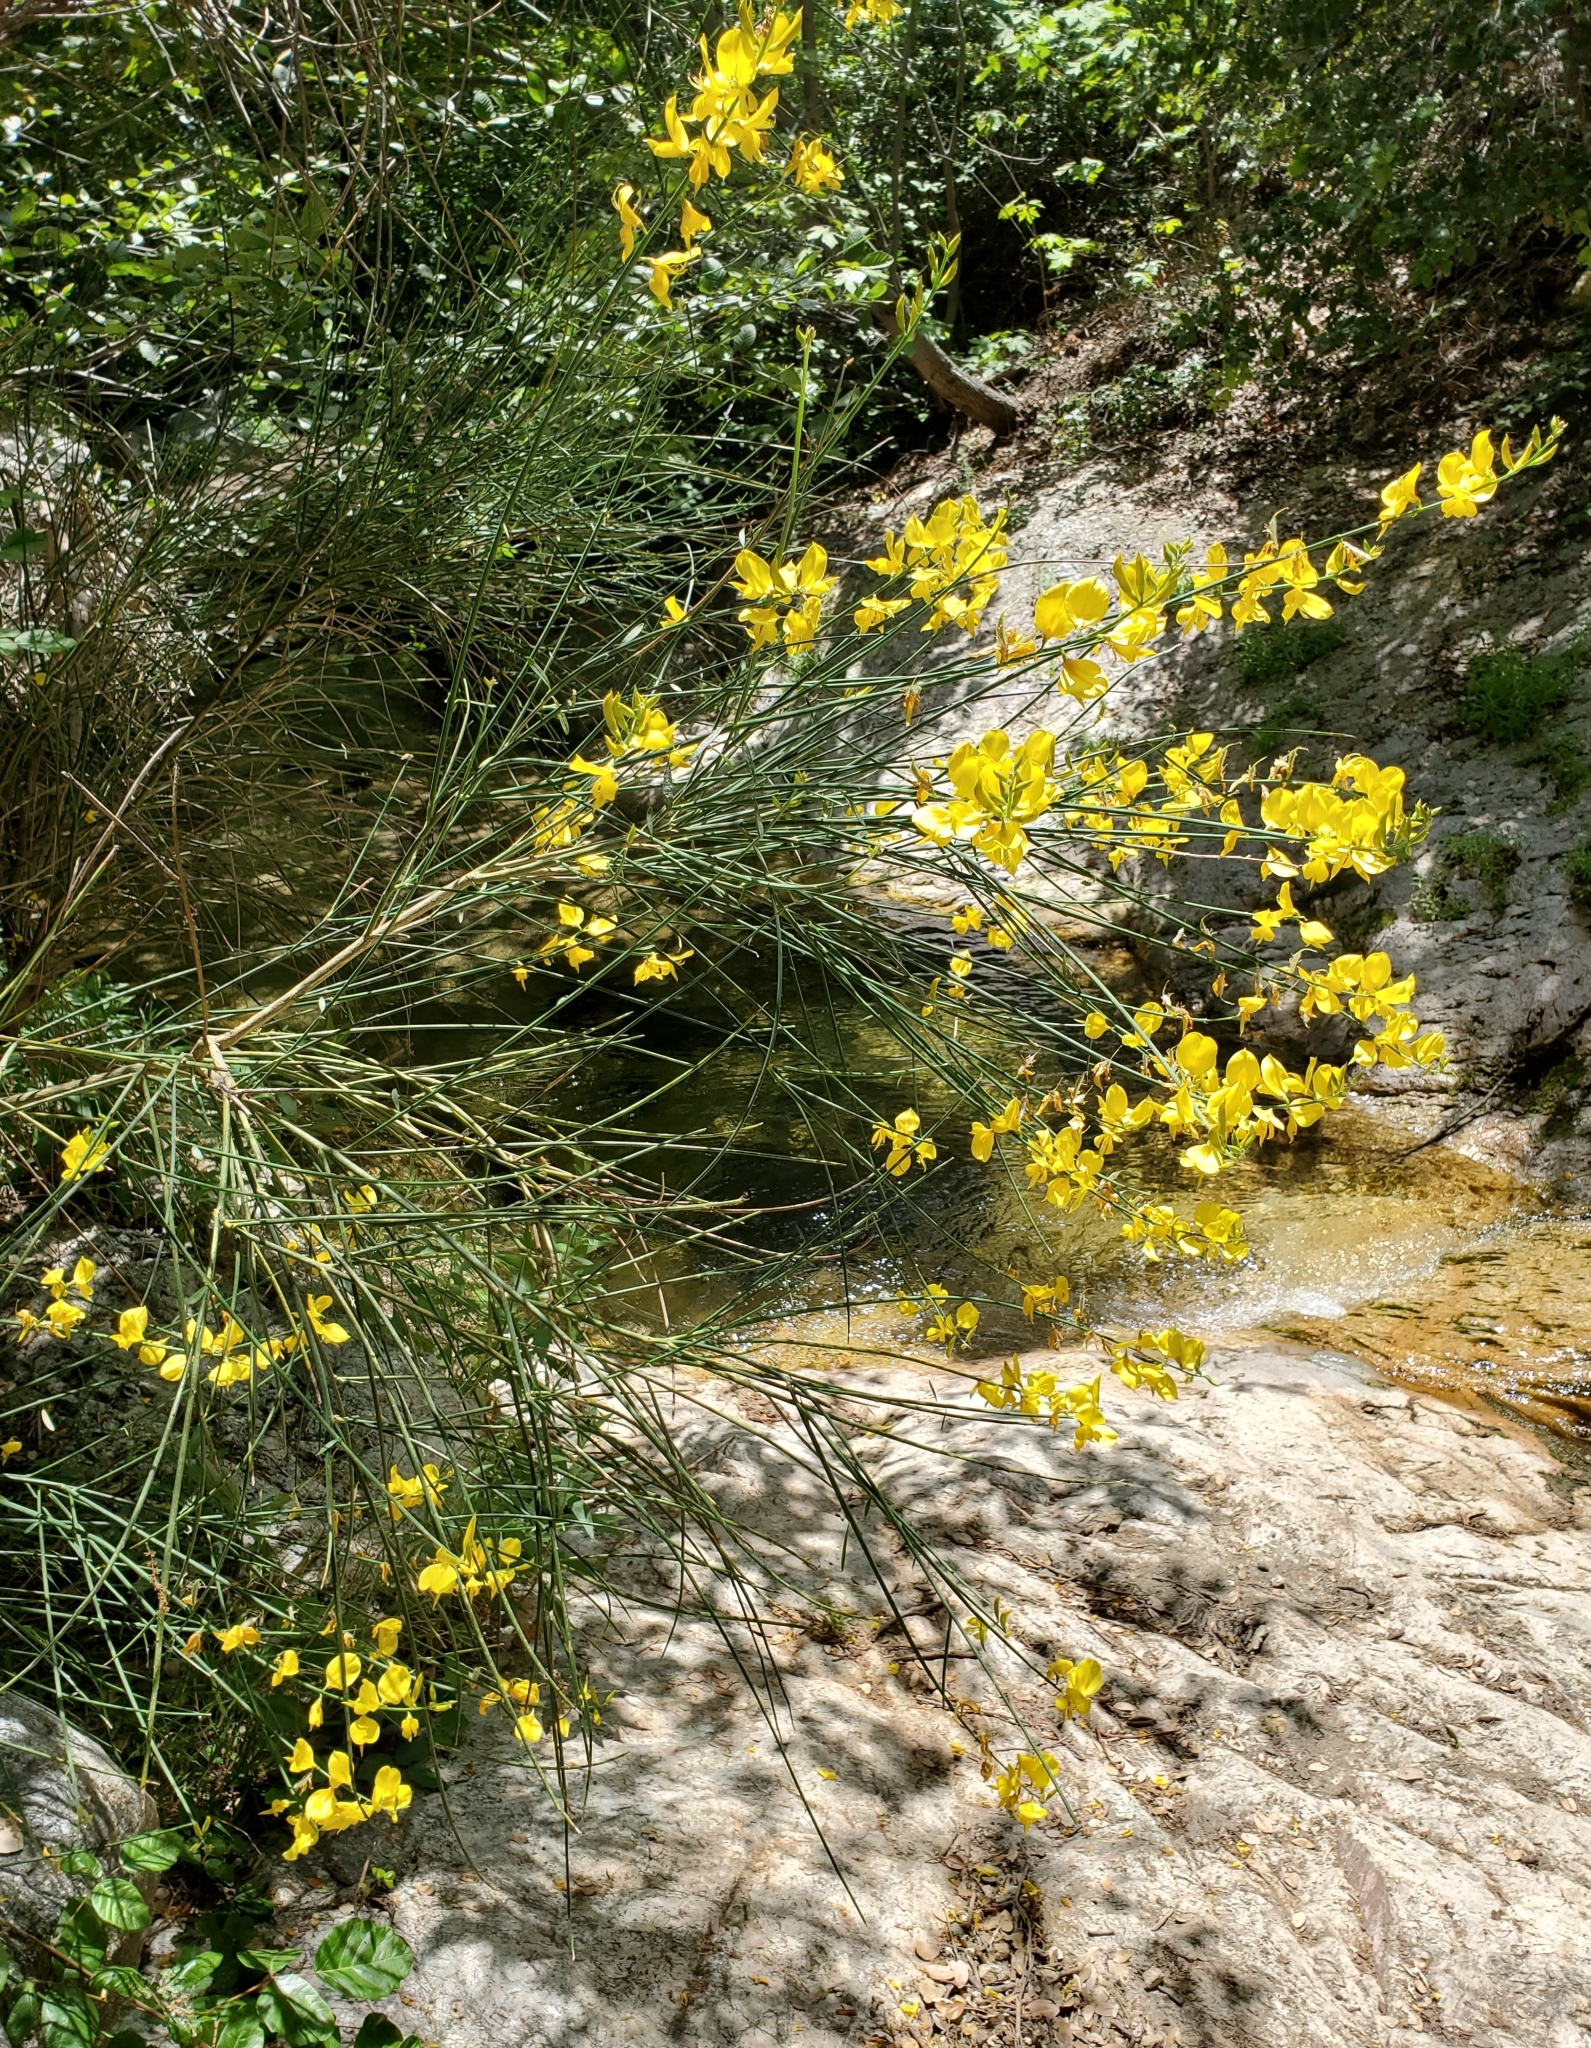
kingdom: Plantae
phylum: Tracheophyta
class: Magnoliopsida
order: Fabales
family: Fabaceae
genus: Spartium
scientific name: Spartium junceum
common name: Spanish broom
